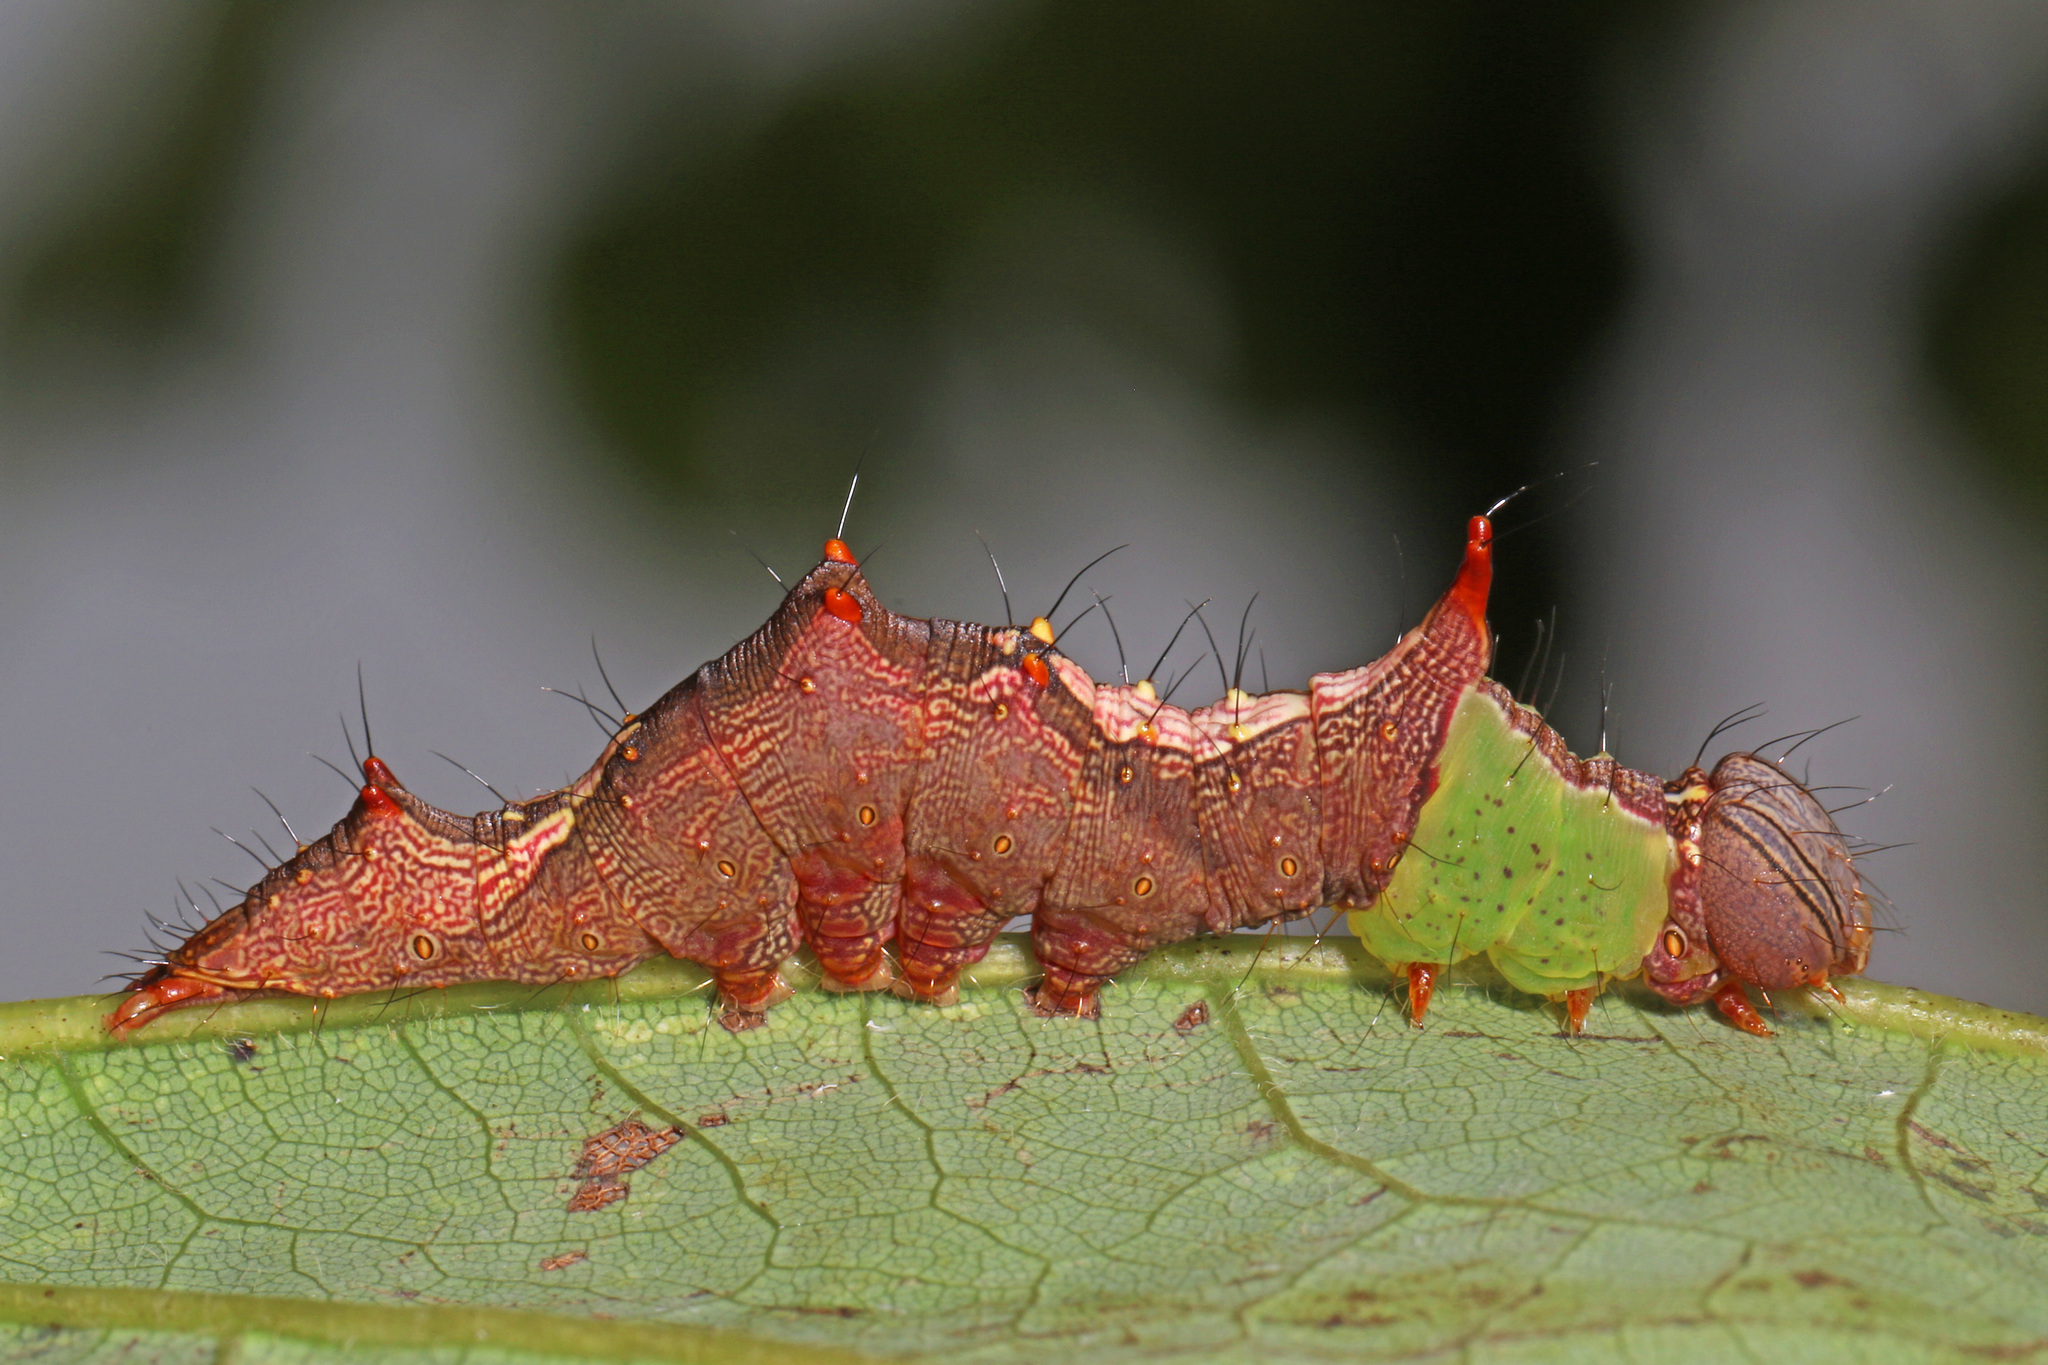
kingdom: Animalia
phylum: Arthropoda
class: Insecta
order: Lepidoptera
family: Notodontidae
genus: Schizura
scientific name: Schizura ipomaeae
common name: Morning-glory prominent
